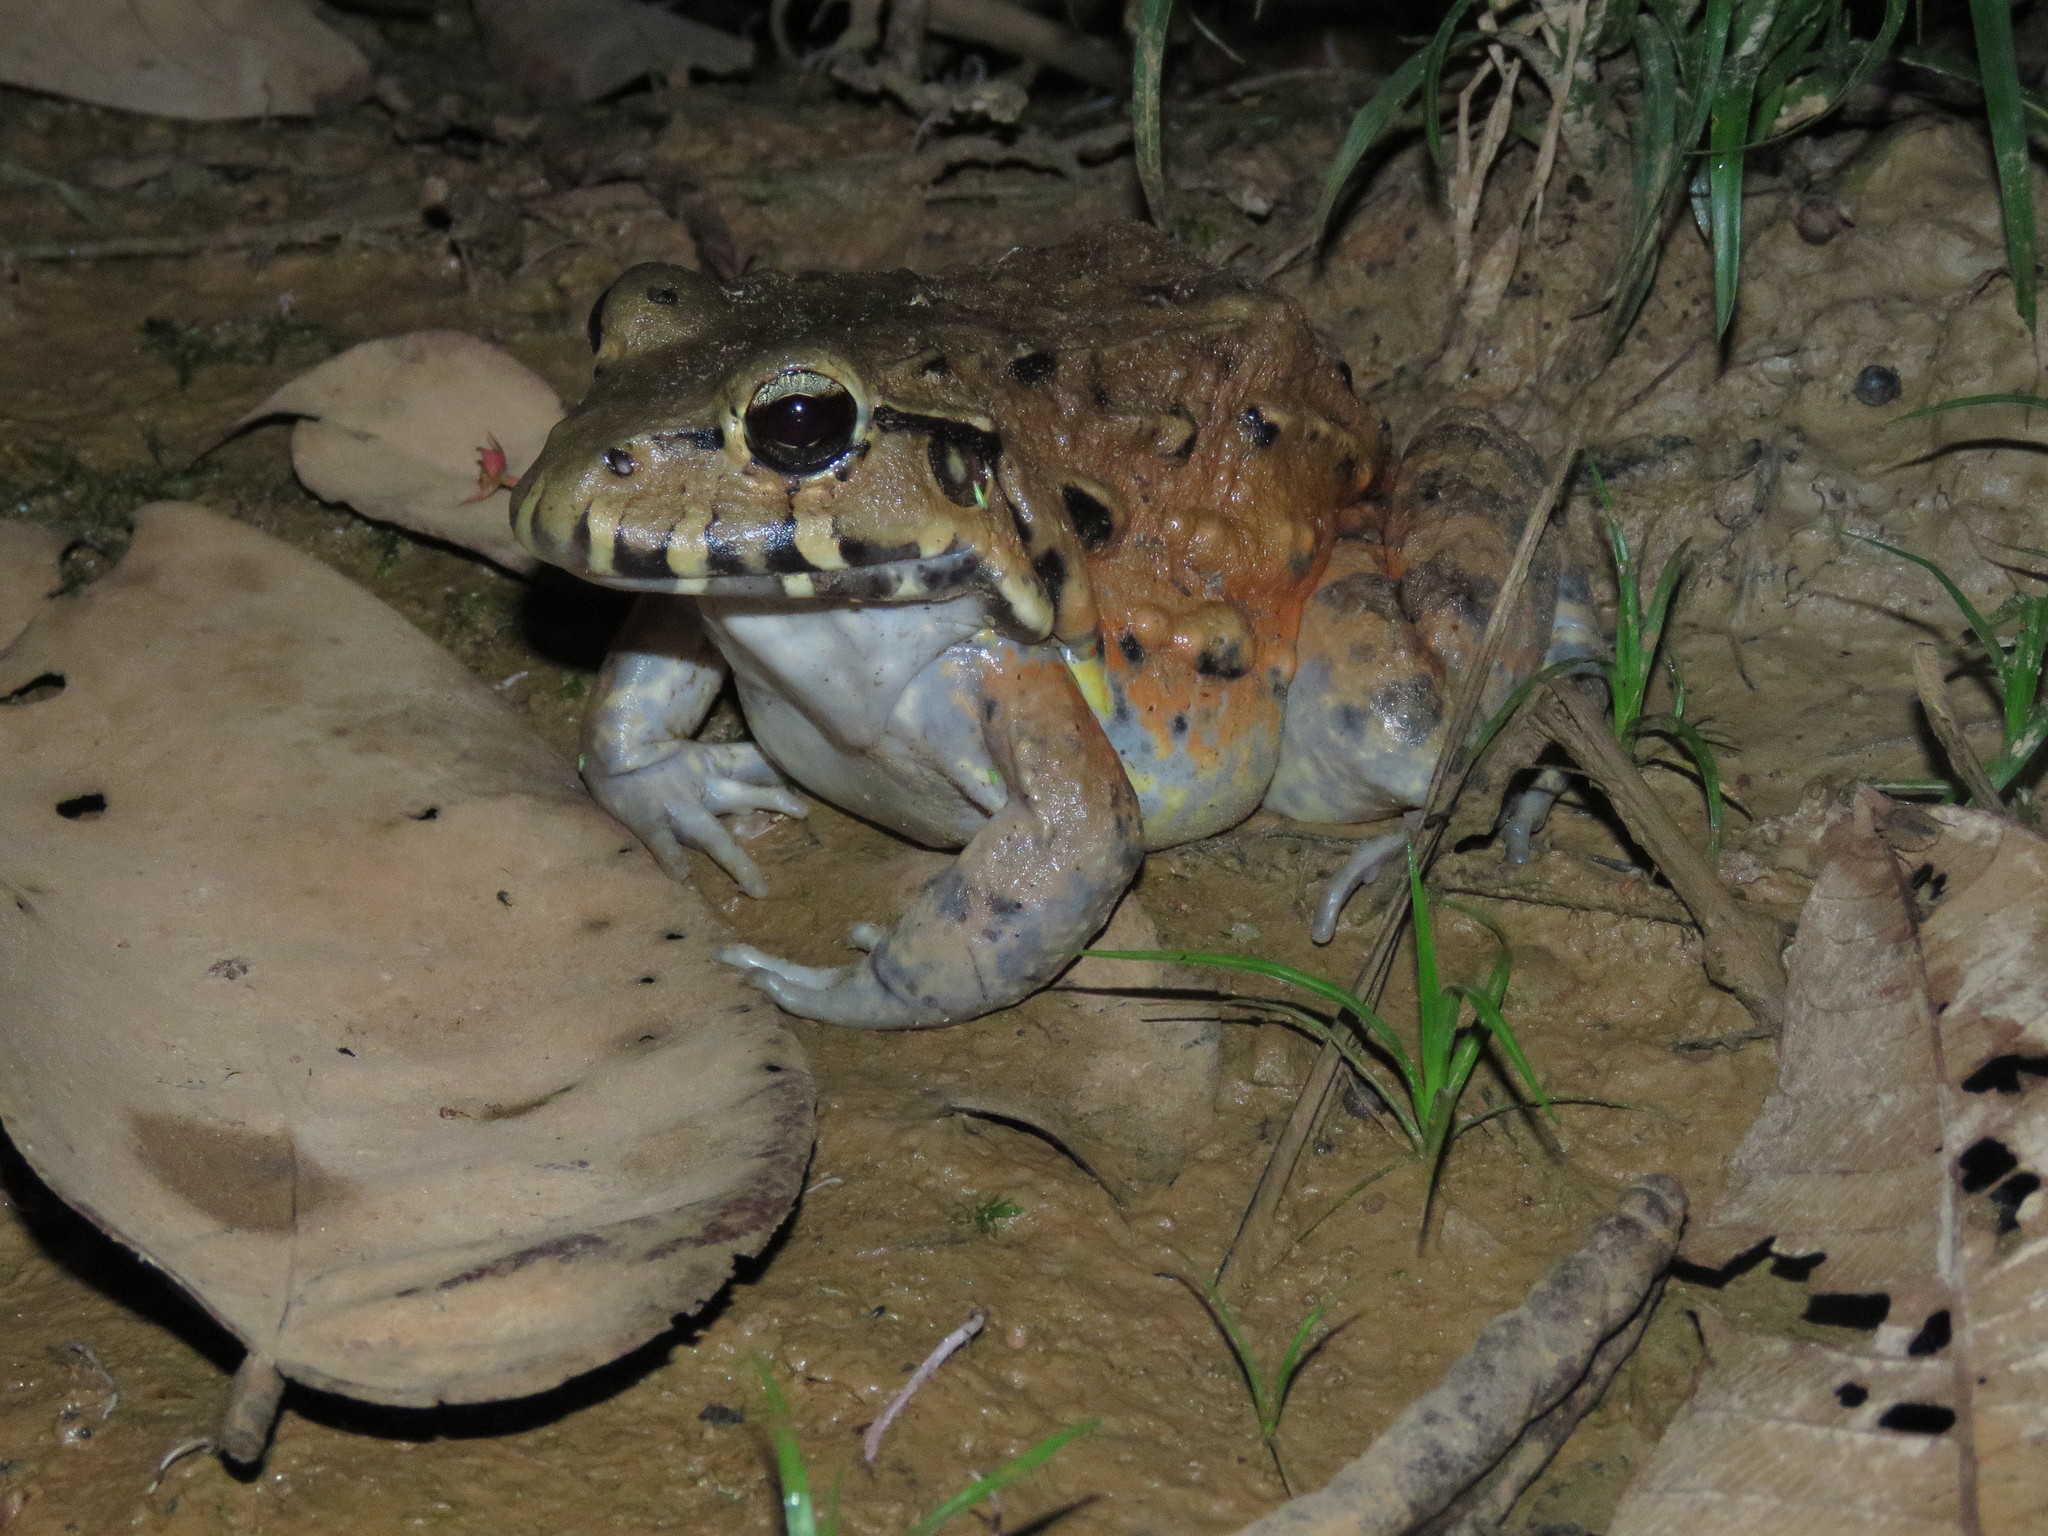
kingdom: Animalia
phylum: Chordata
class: Amphibia
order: Anura
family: Leptodactylidae
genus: Leptodactylus
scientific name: Leptodactylus pentadactylus
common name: Smoky jungle frog
